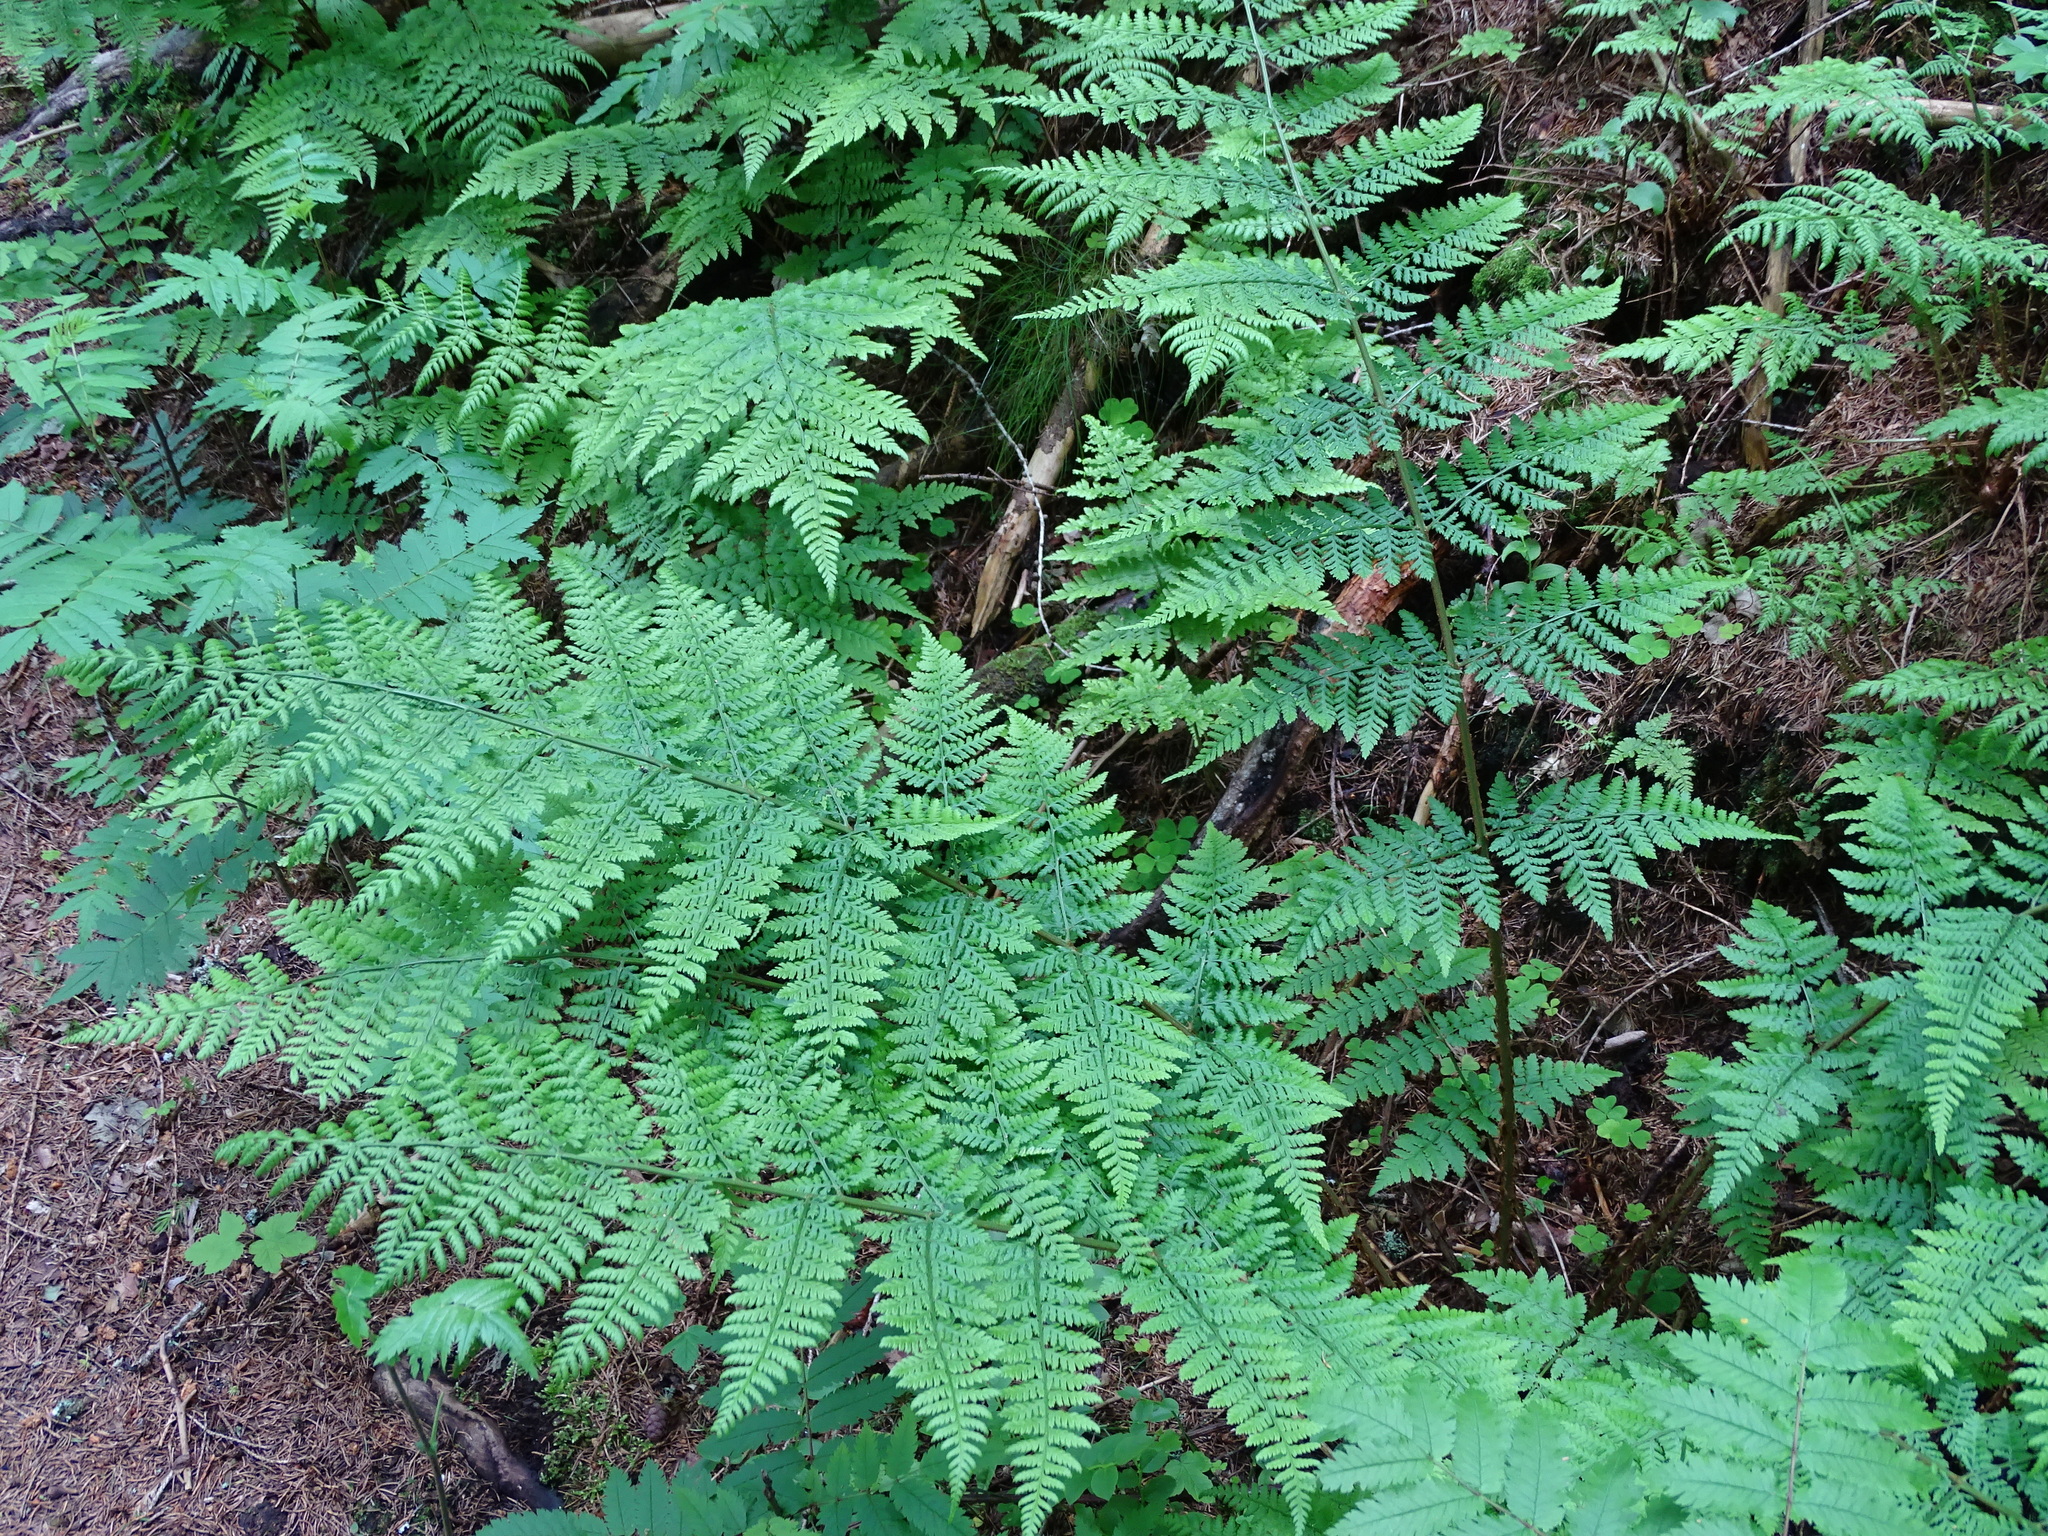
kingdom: Plantae
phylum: Tracheophyta
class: Polypodiopsida
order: Polypodiales
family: Dryopteridaceae
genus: Dryopteris
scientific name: Dryopteris expansa
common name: Northern buckler fern
